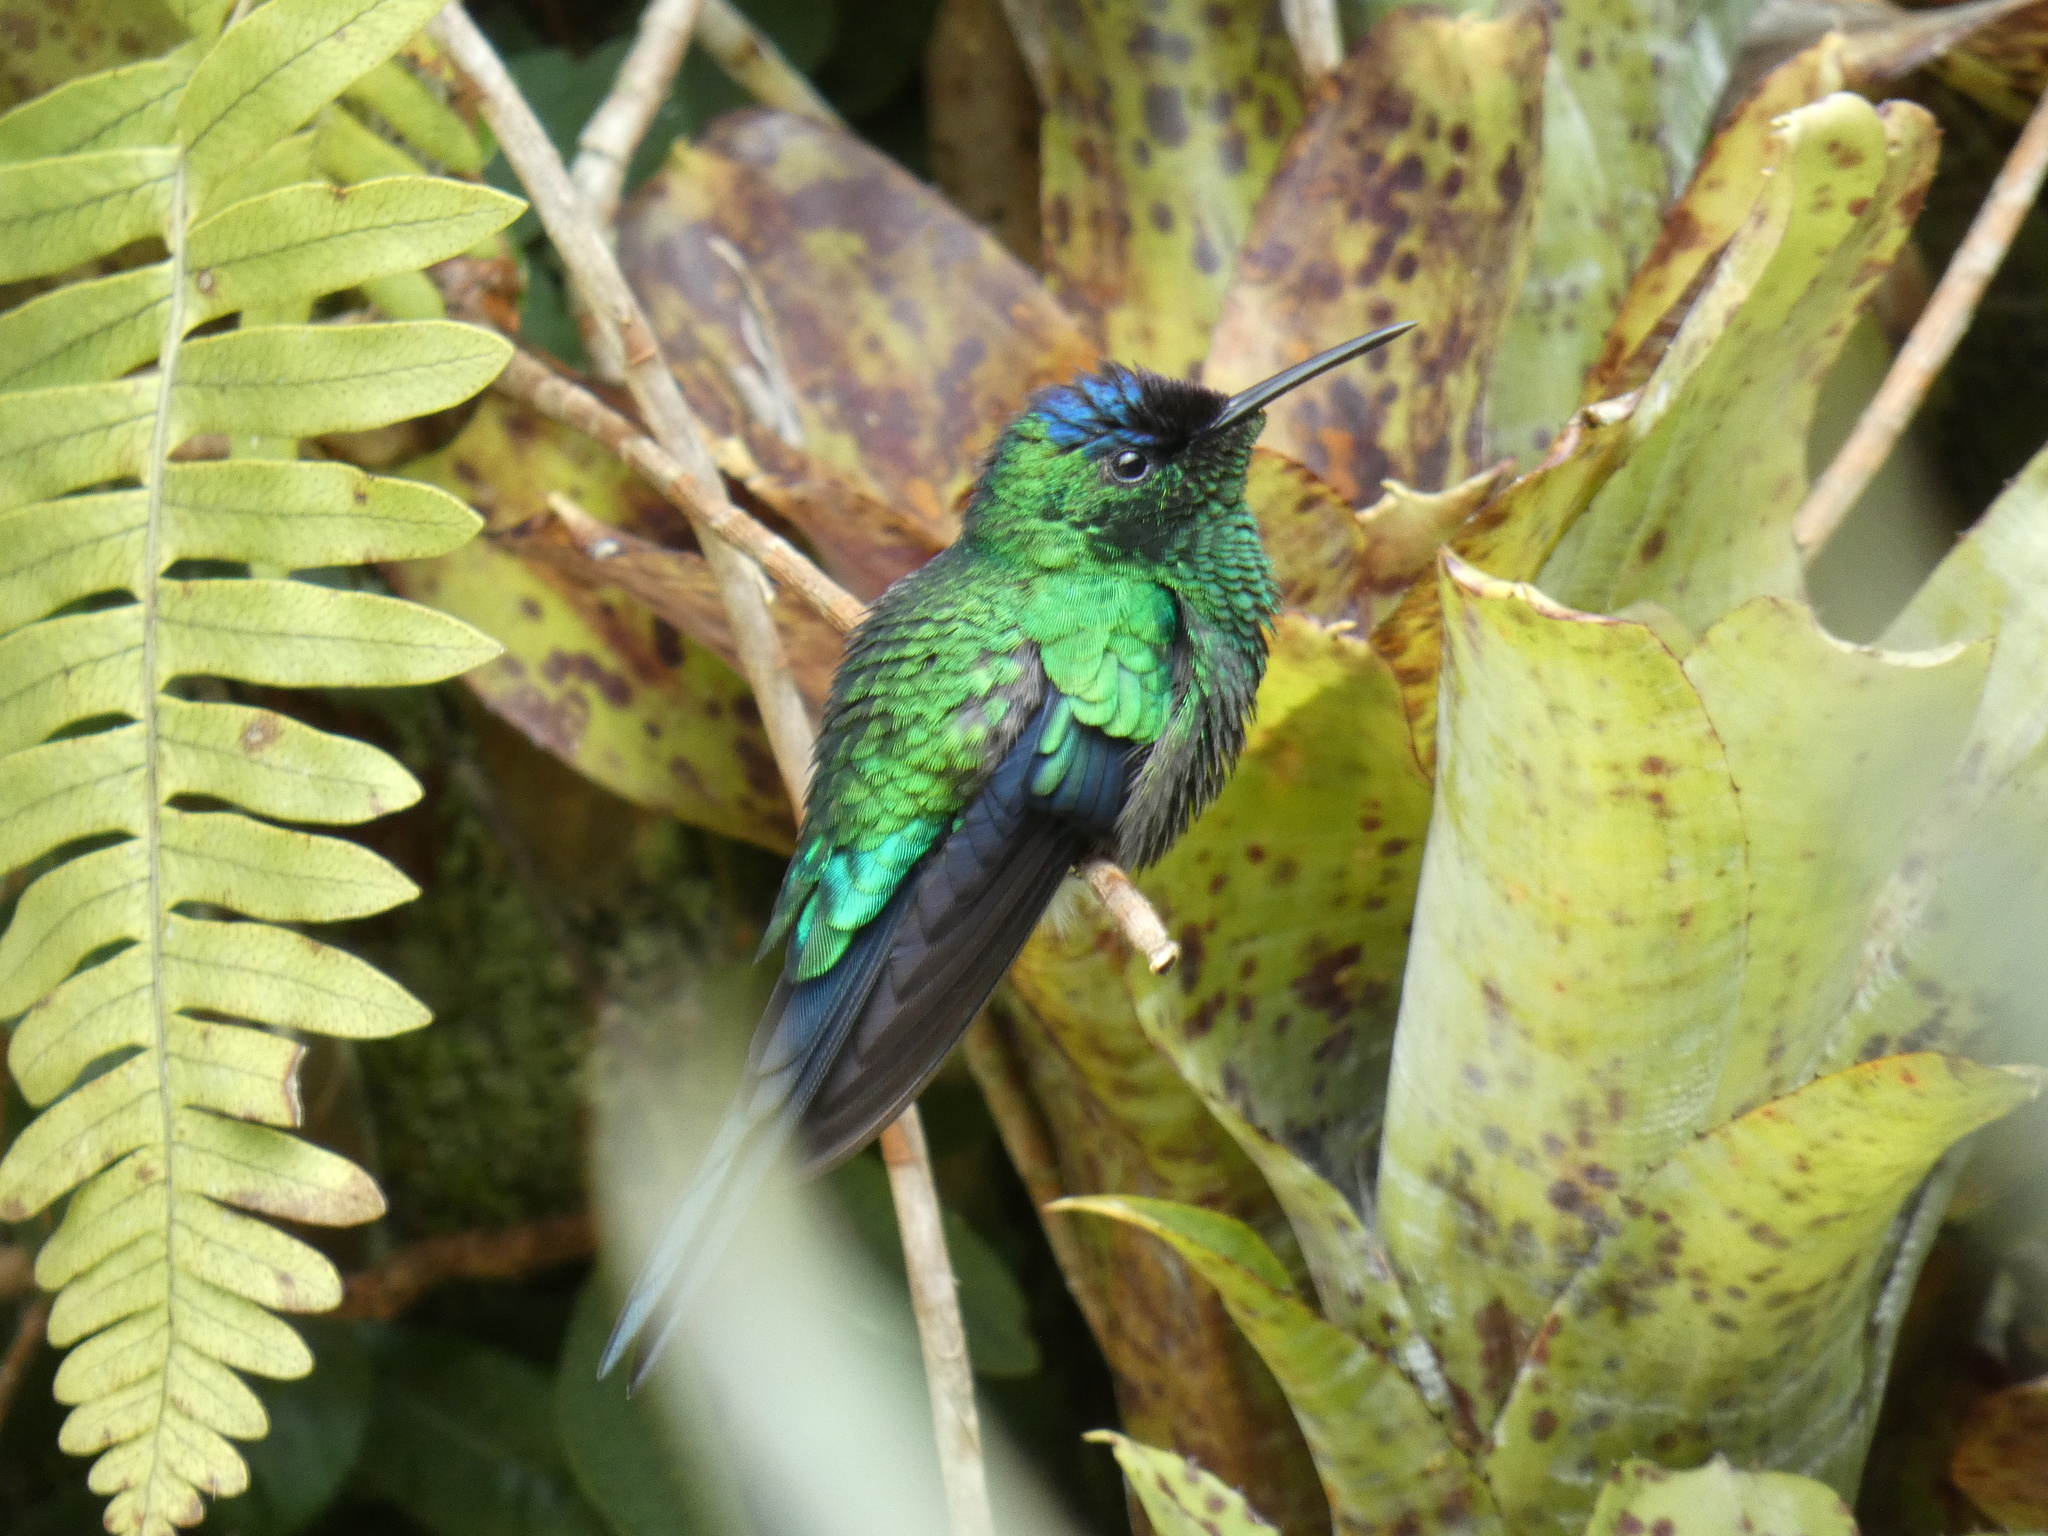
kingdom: Animalia
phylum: Chordata
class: Aves
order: Apodiformes
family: Trochilidae
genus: Thalurania
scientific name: Thalurania glaucopis
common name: Violet-capped woodnymph
